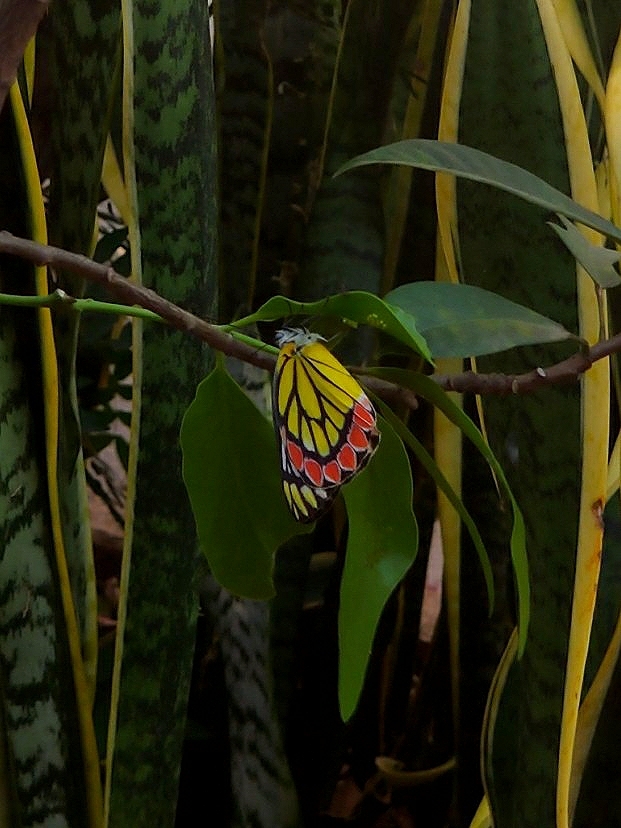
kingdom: Animalia
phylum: Arthropoda
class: Insecta
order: Lepidoptera
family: Pieridae
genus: Delias
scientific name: Delias eucharis
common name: Common jezebel
